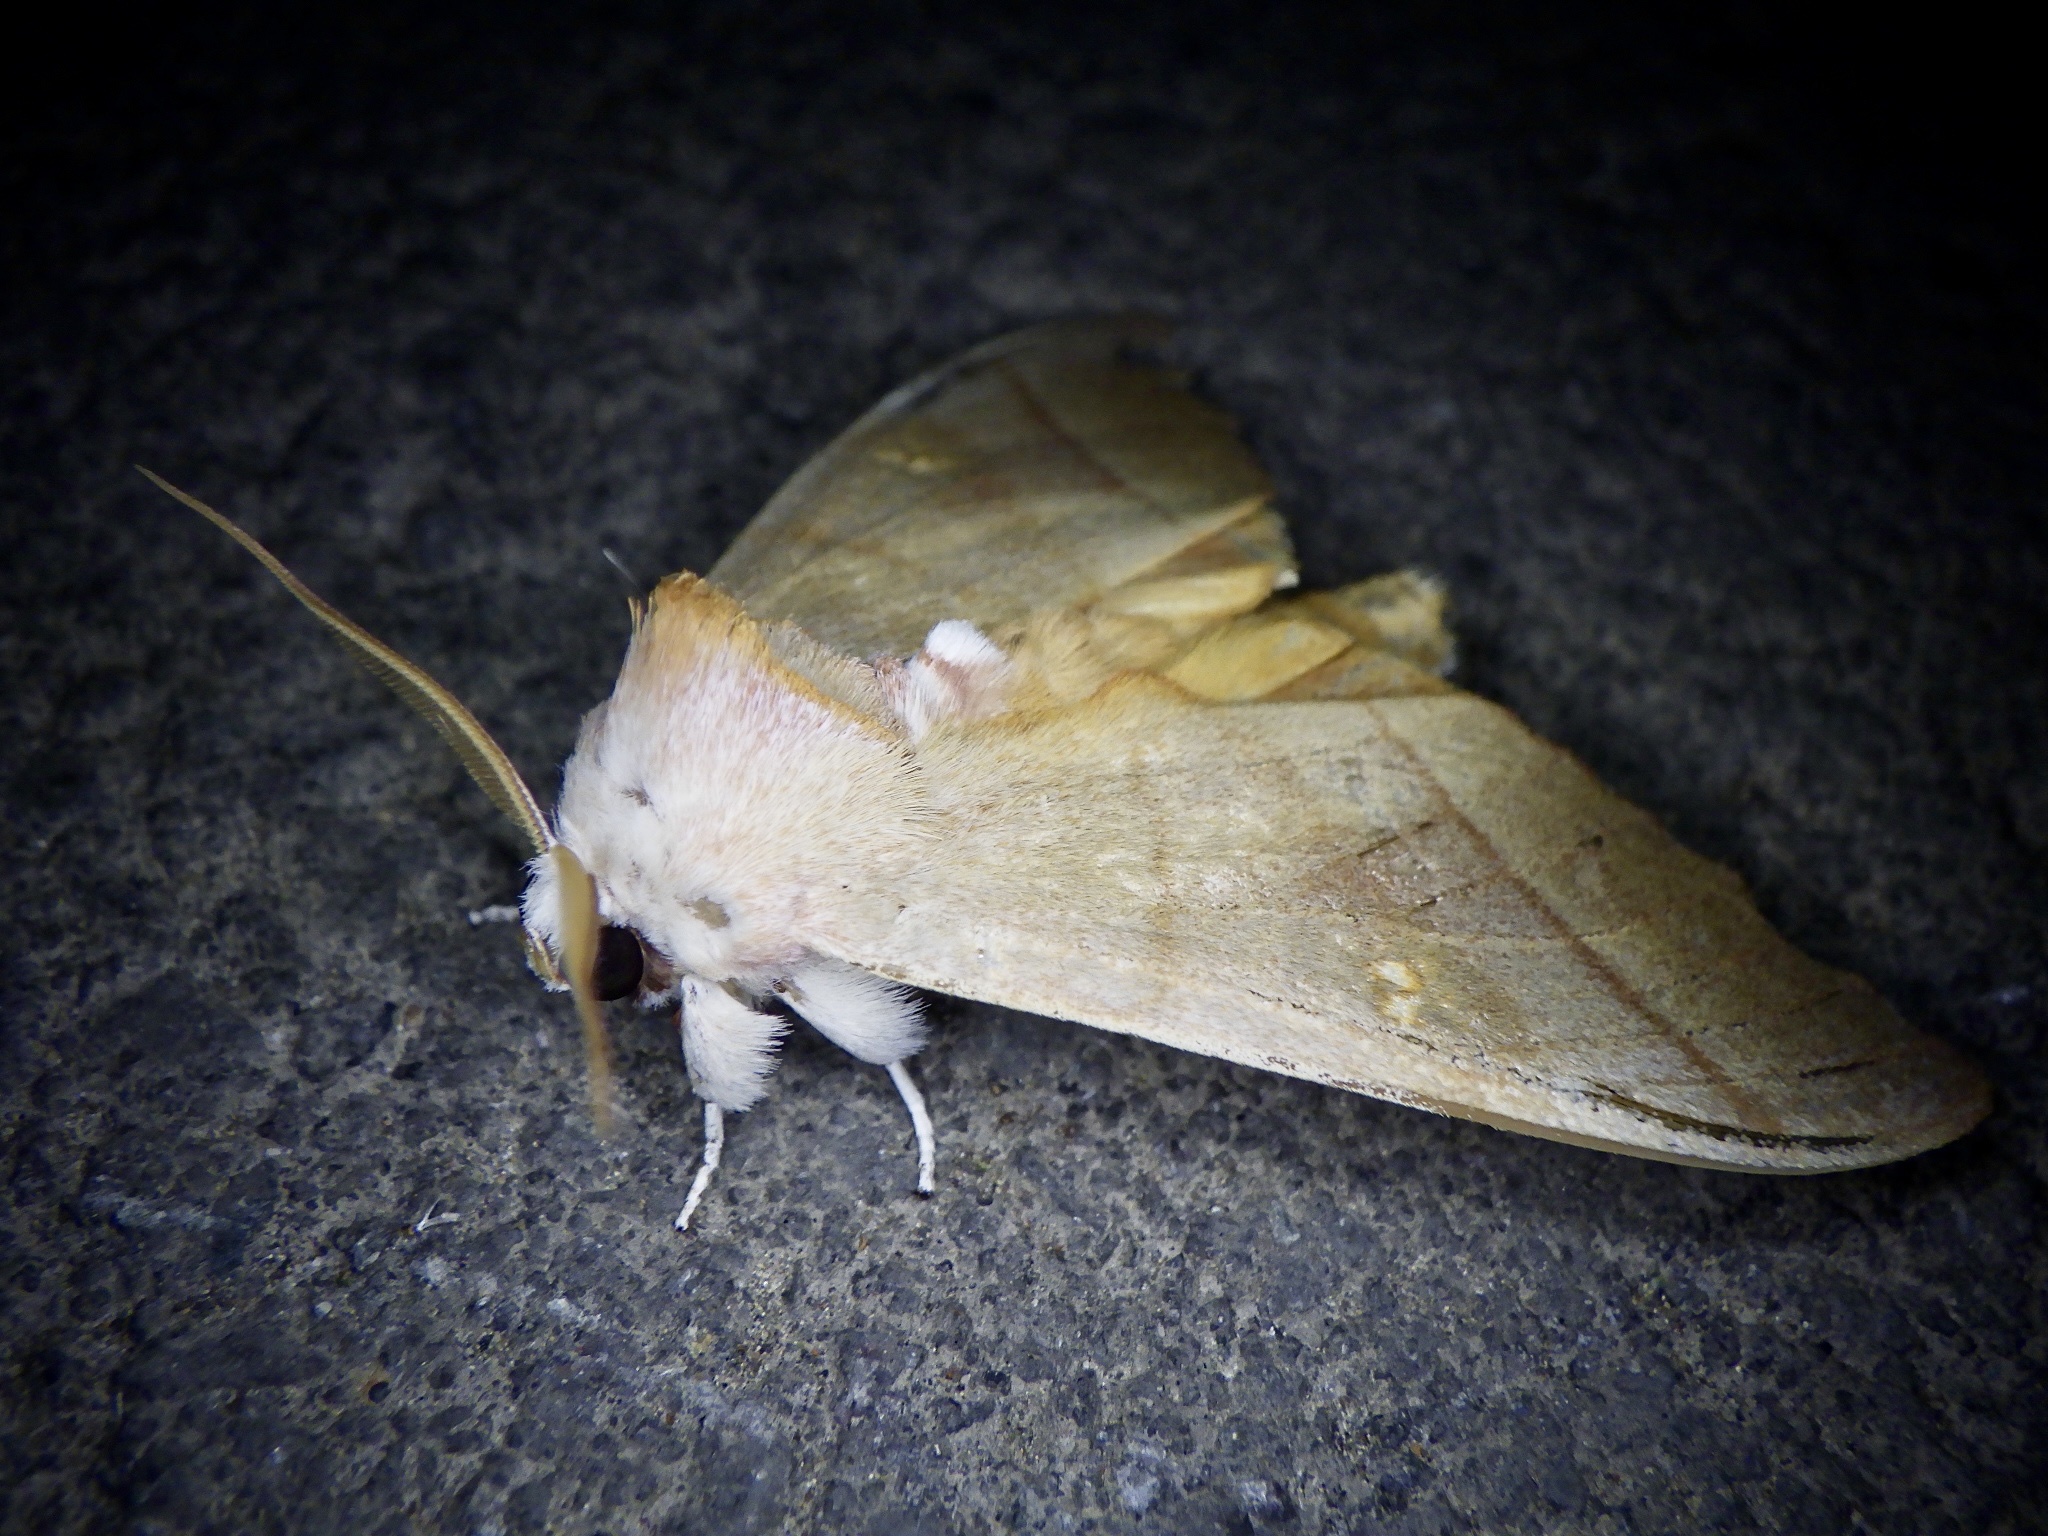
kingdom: Animalia
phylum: Arthropoda
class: Insecta
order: Lepidoptera
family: Notodontidae
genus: Euhampsonia
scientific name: Euhampsonia cristata
